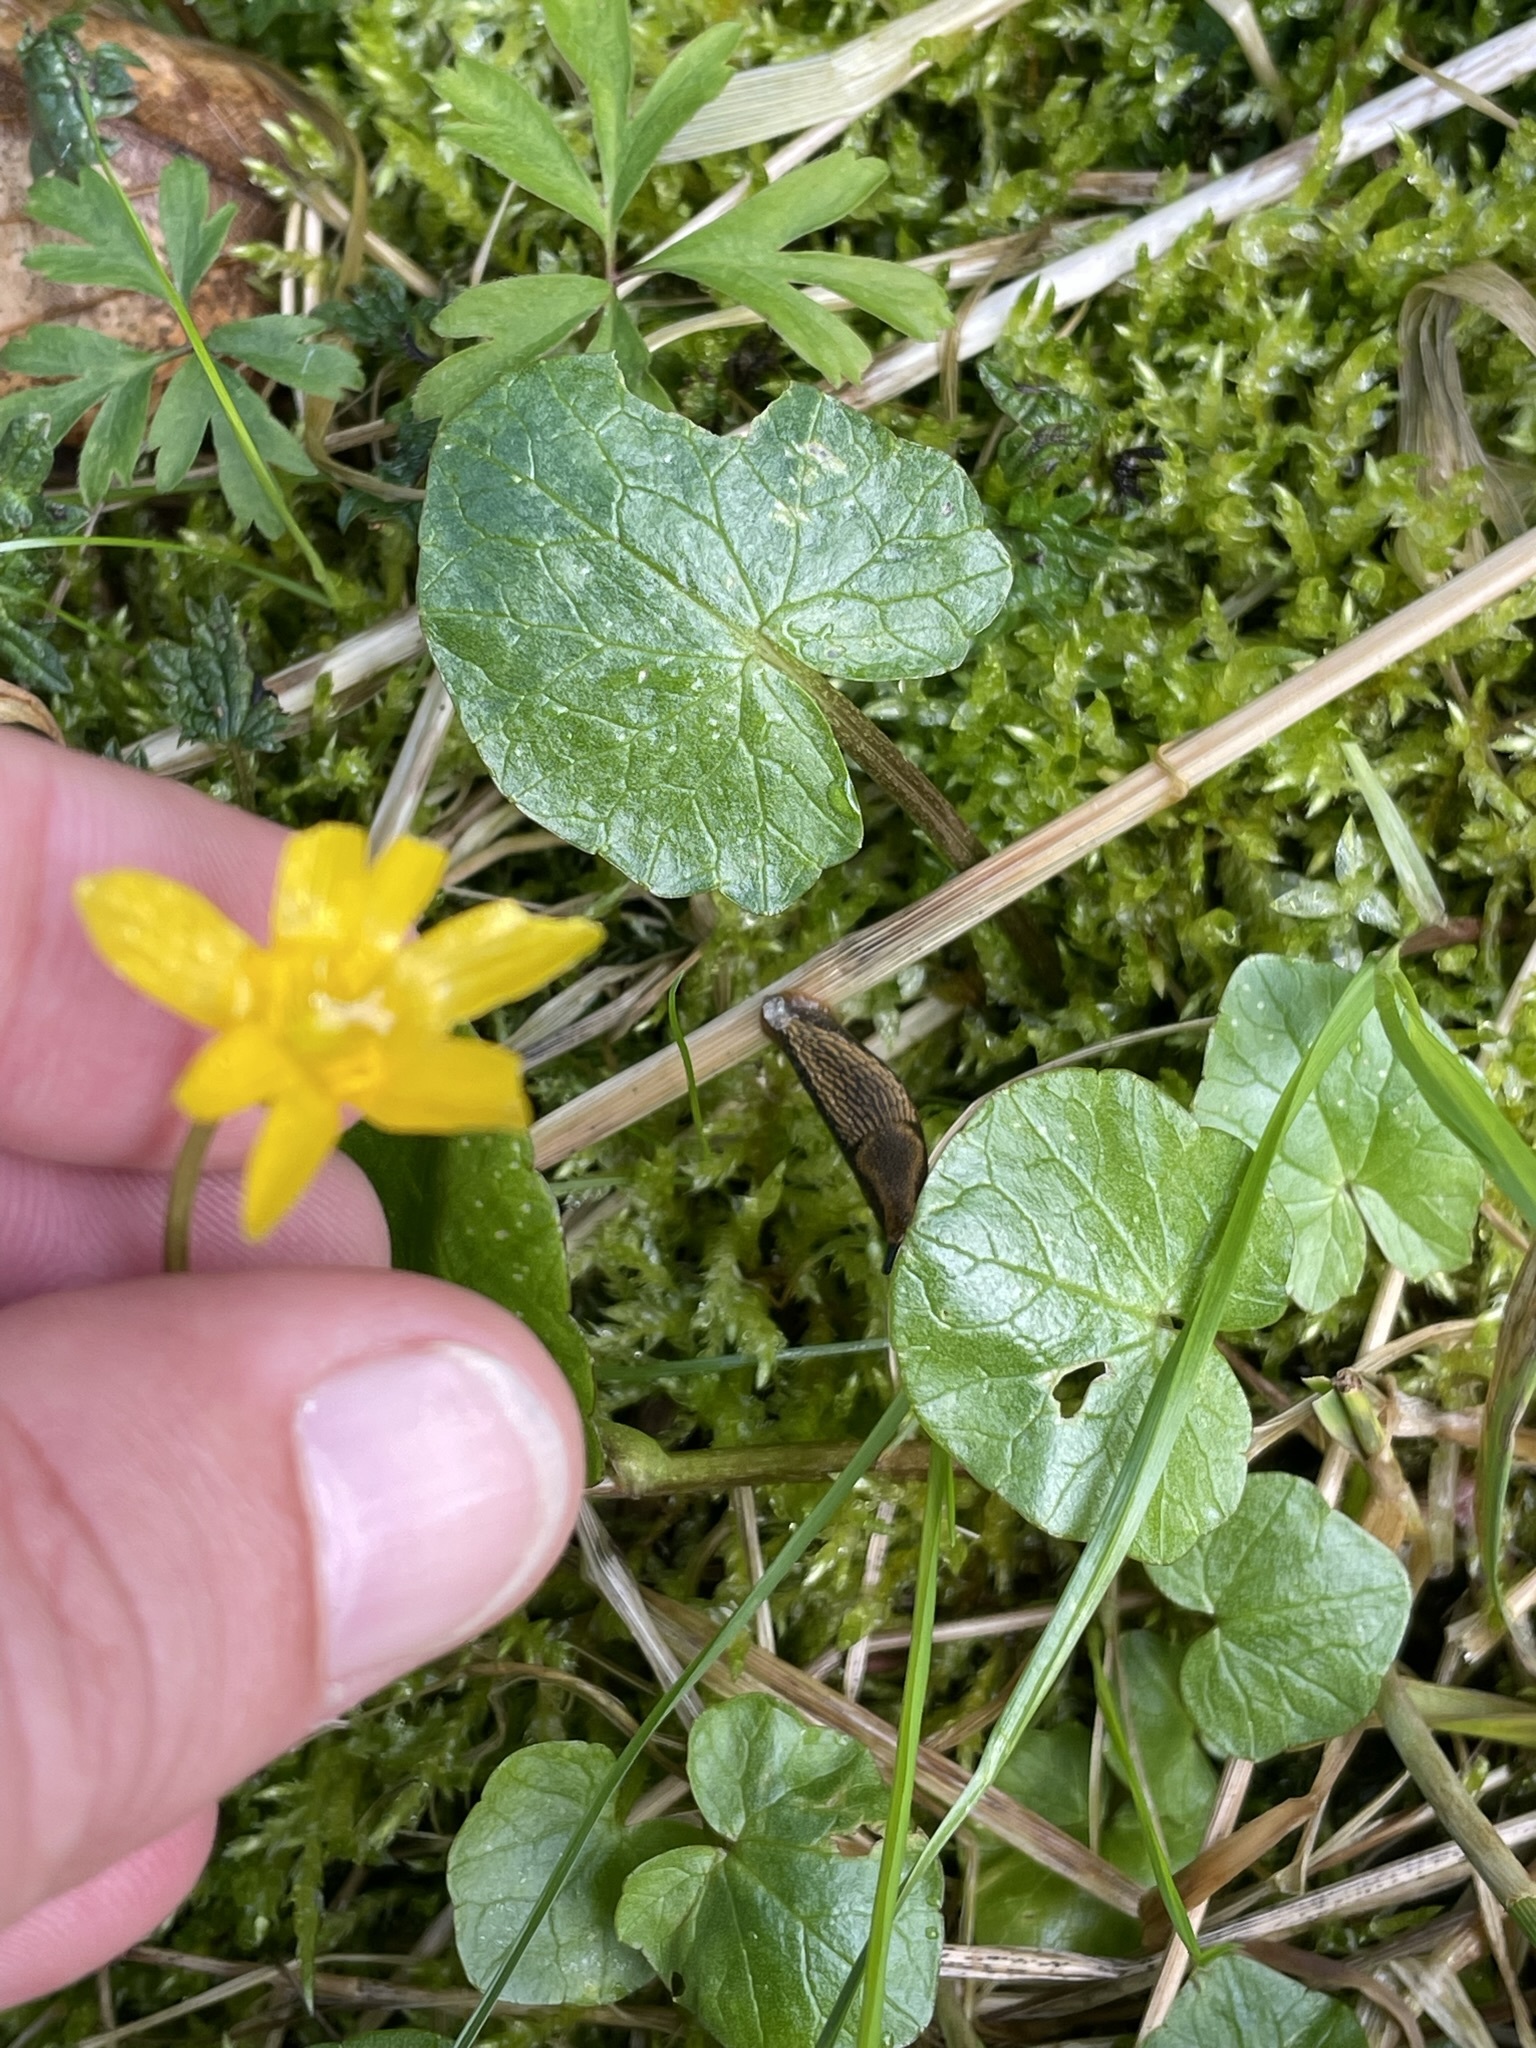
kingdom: Plantae
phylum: Tracheophyta
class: Magnoliopsida
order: Ranunculales
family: Ranunculaceae
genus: Ficaria
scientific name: Ficaria verna
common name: Lesser celandine
